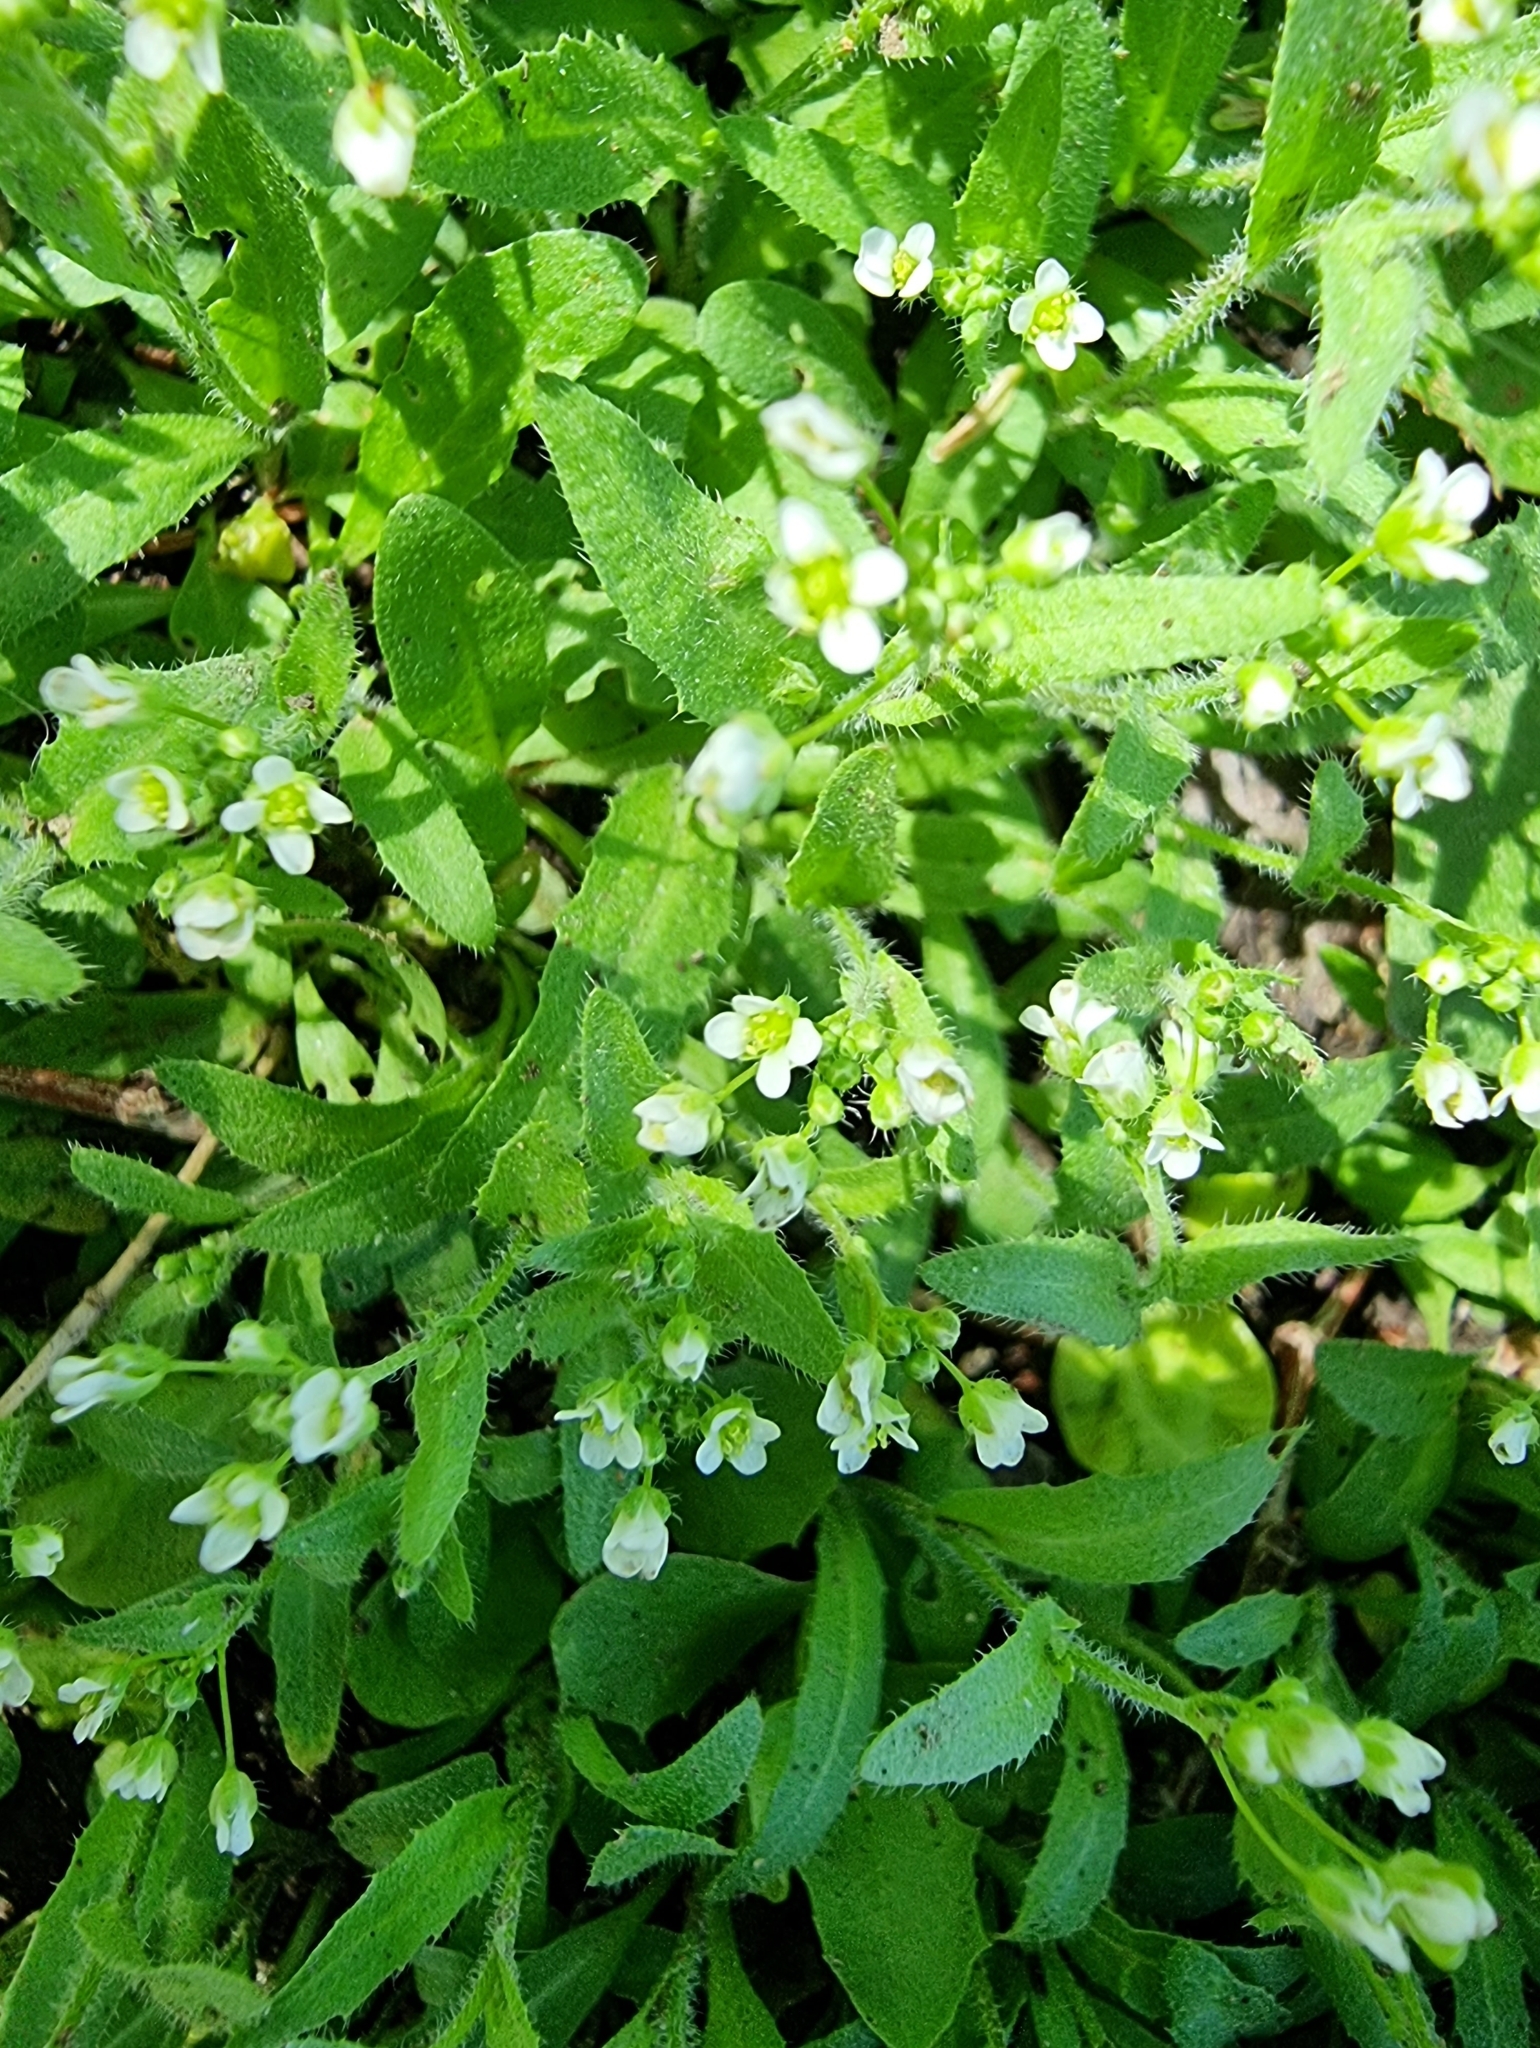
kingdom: Plantae
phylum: Tracheophyta
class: Magnoliopsida
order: Brassicales
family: Brassicaceae
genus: Capsella
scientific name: Capsella bursa-pastoris
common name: Shepherd's purse
